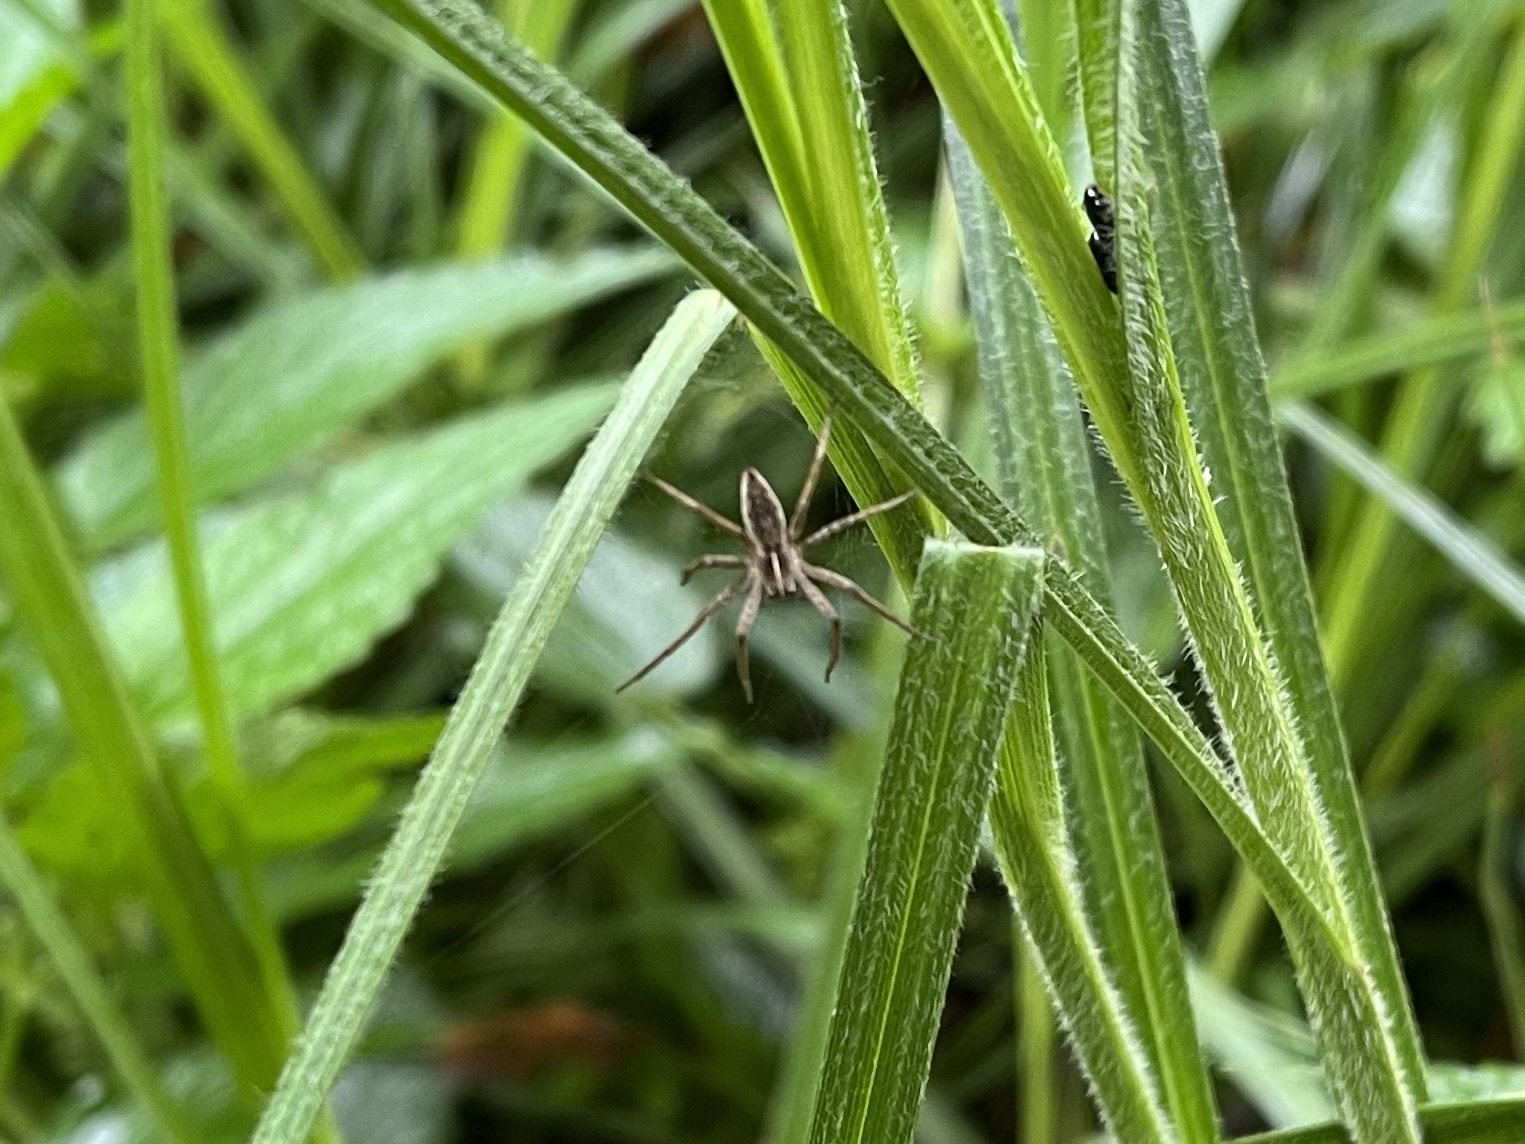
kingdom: Animalia
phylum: Arthropoda
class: Arachnida
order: Araneae
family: Pisauridae
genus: Pisaura
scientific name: Pisaura mirabilis
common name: Tent spider
